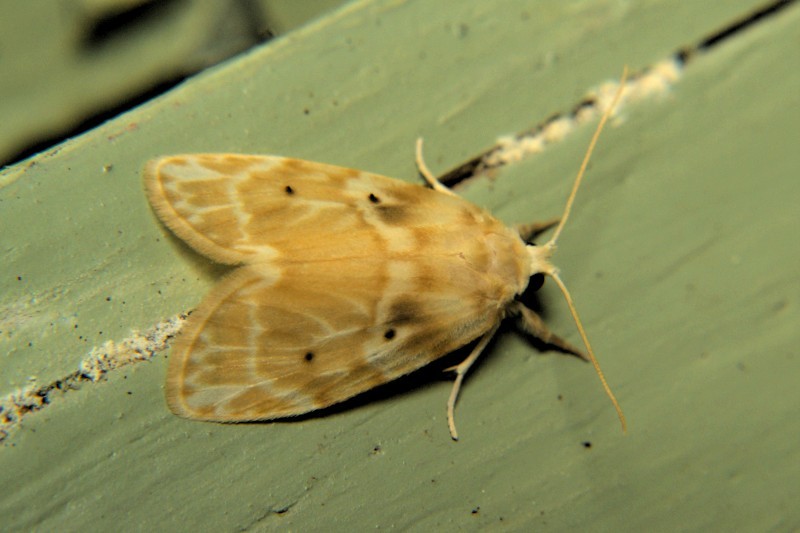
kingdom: Animalia
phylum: Arthropoda
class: Insecta
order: Lepidoptera
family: Erebidae
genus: Schistophleps
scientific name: Schistophleps bipuncta
